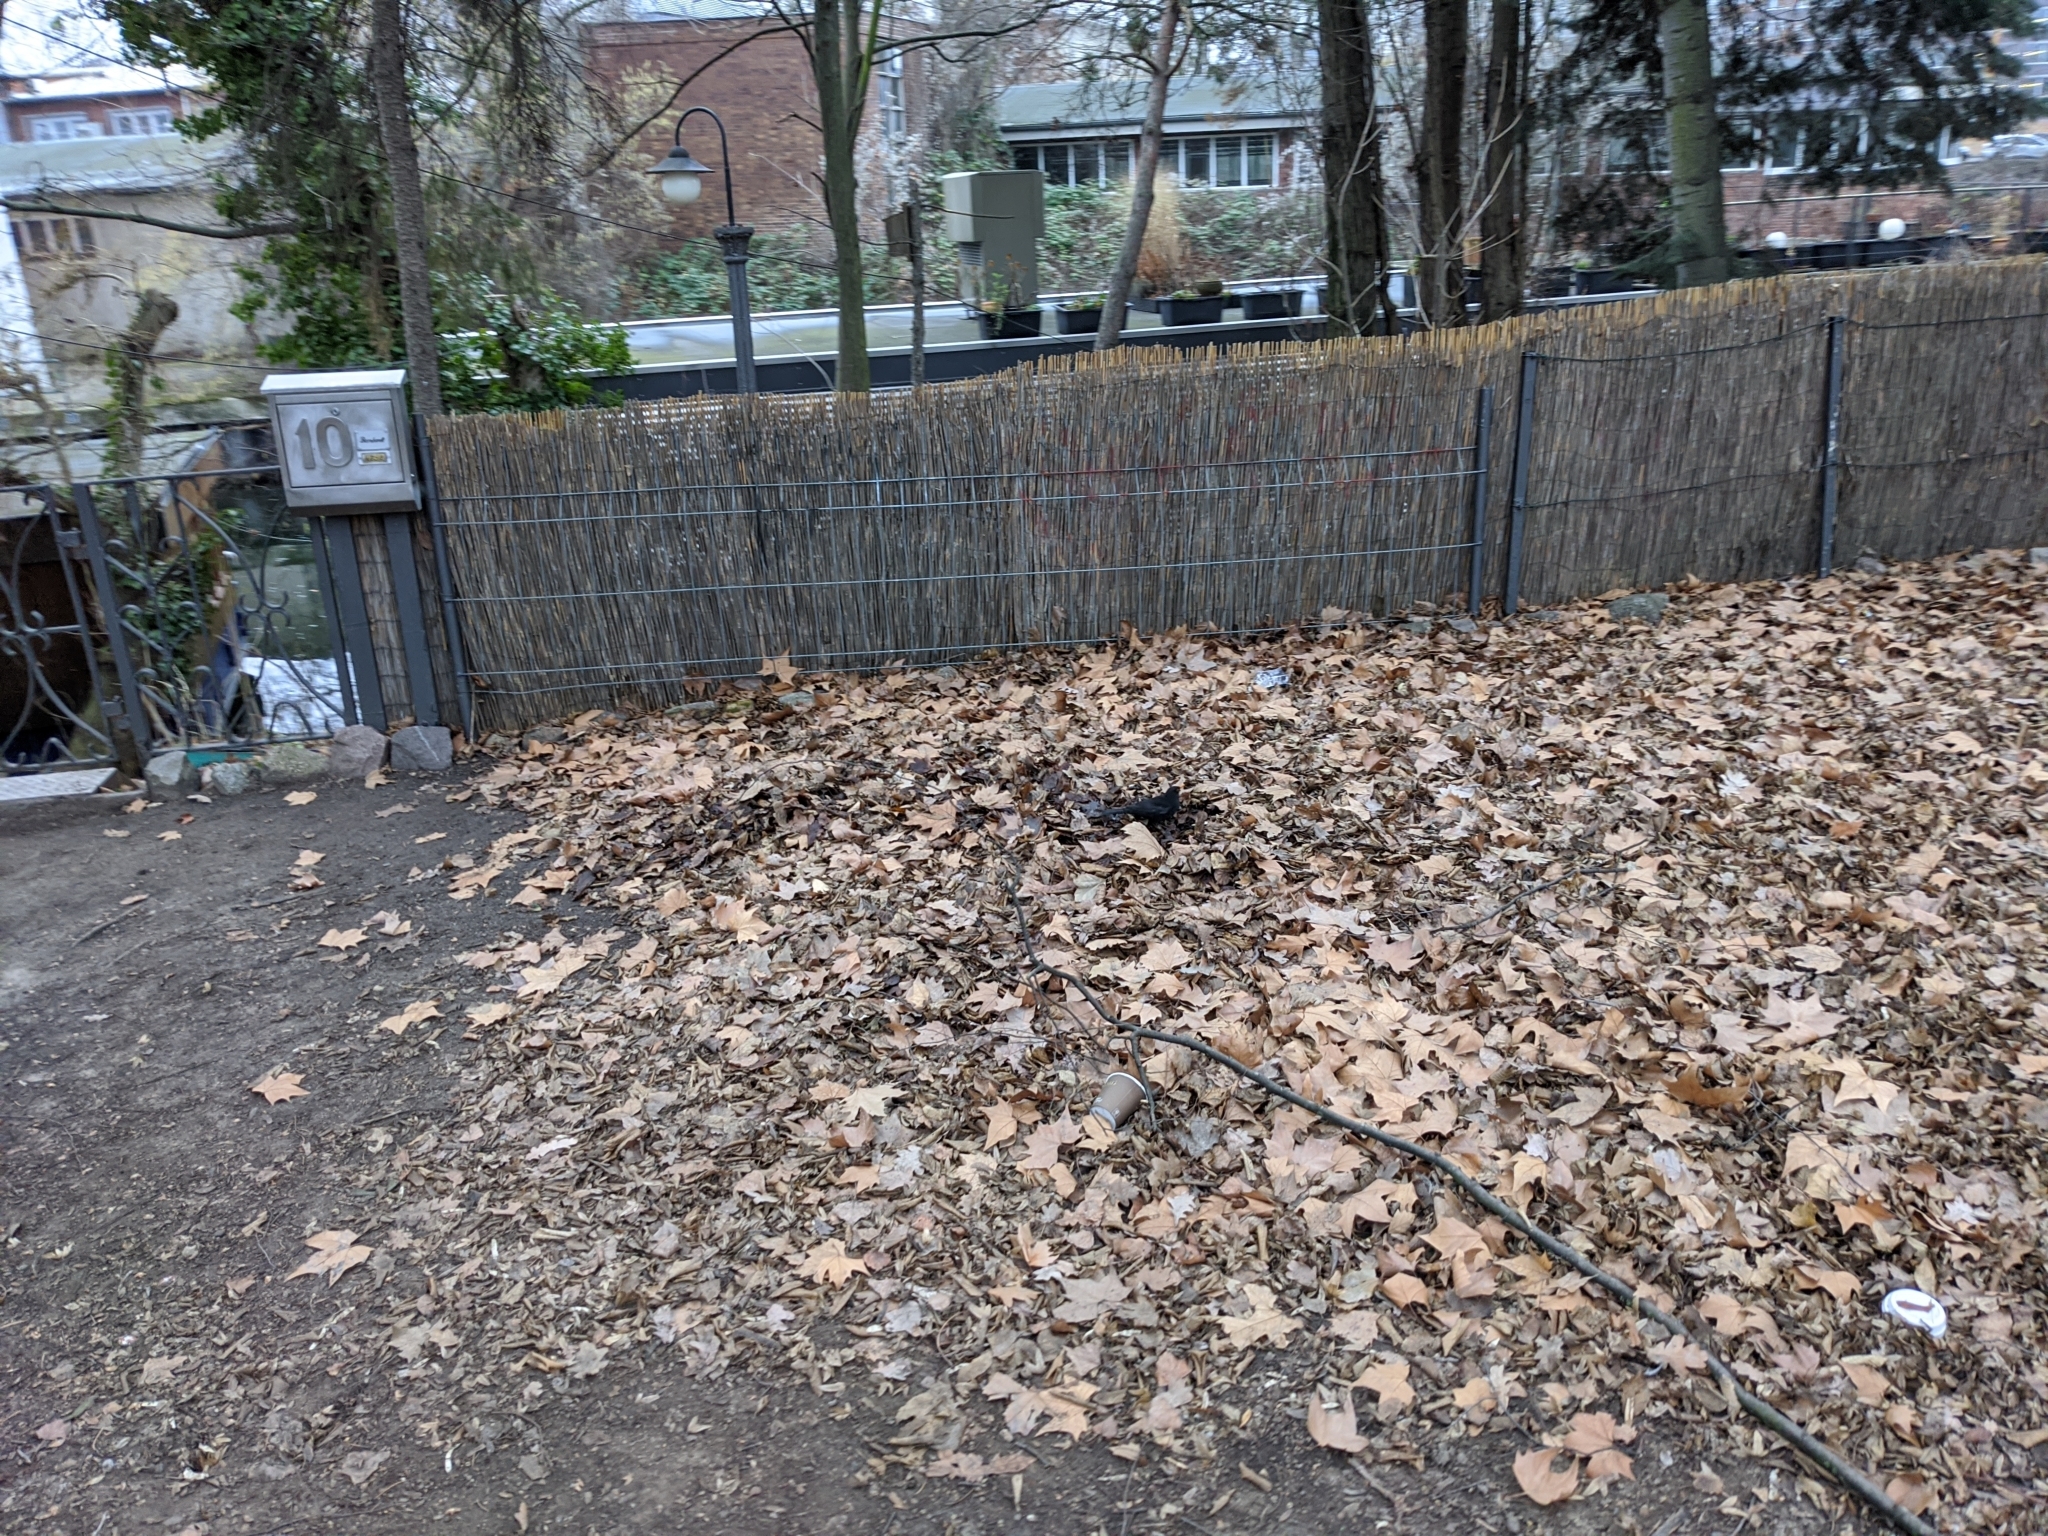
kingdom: Animalia
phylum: Chordata
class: Aves
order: Passeriformes
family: Turdidae
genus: Turdus
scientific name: Turdus merula
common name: Common blackbird
